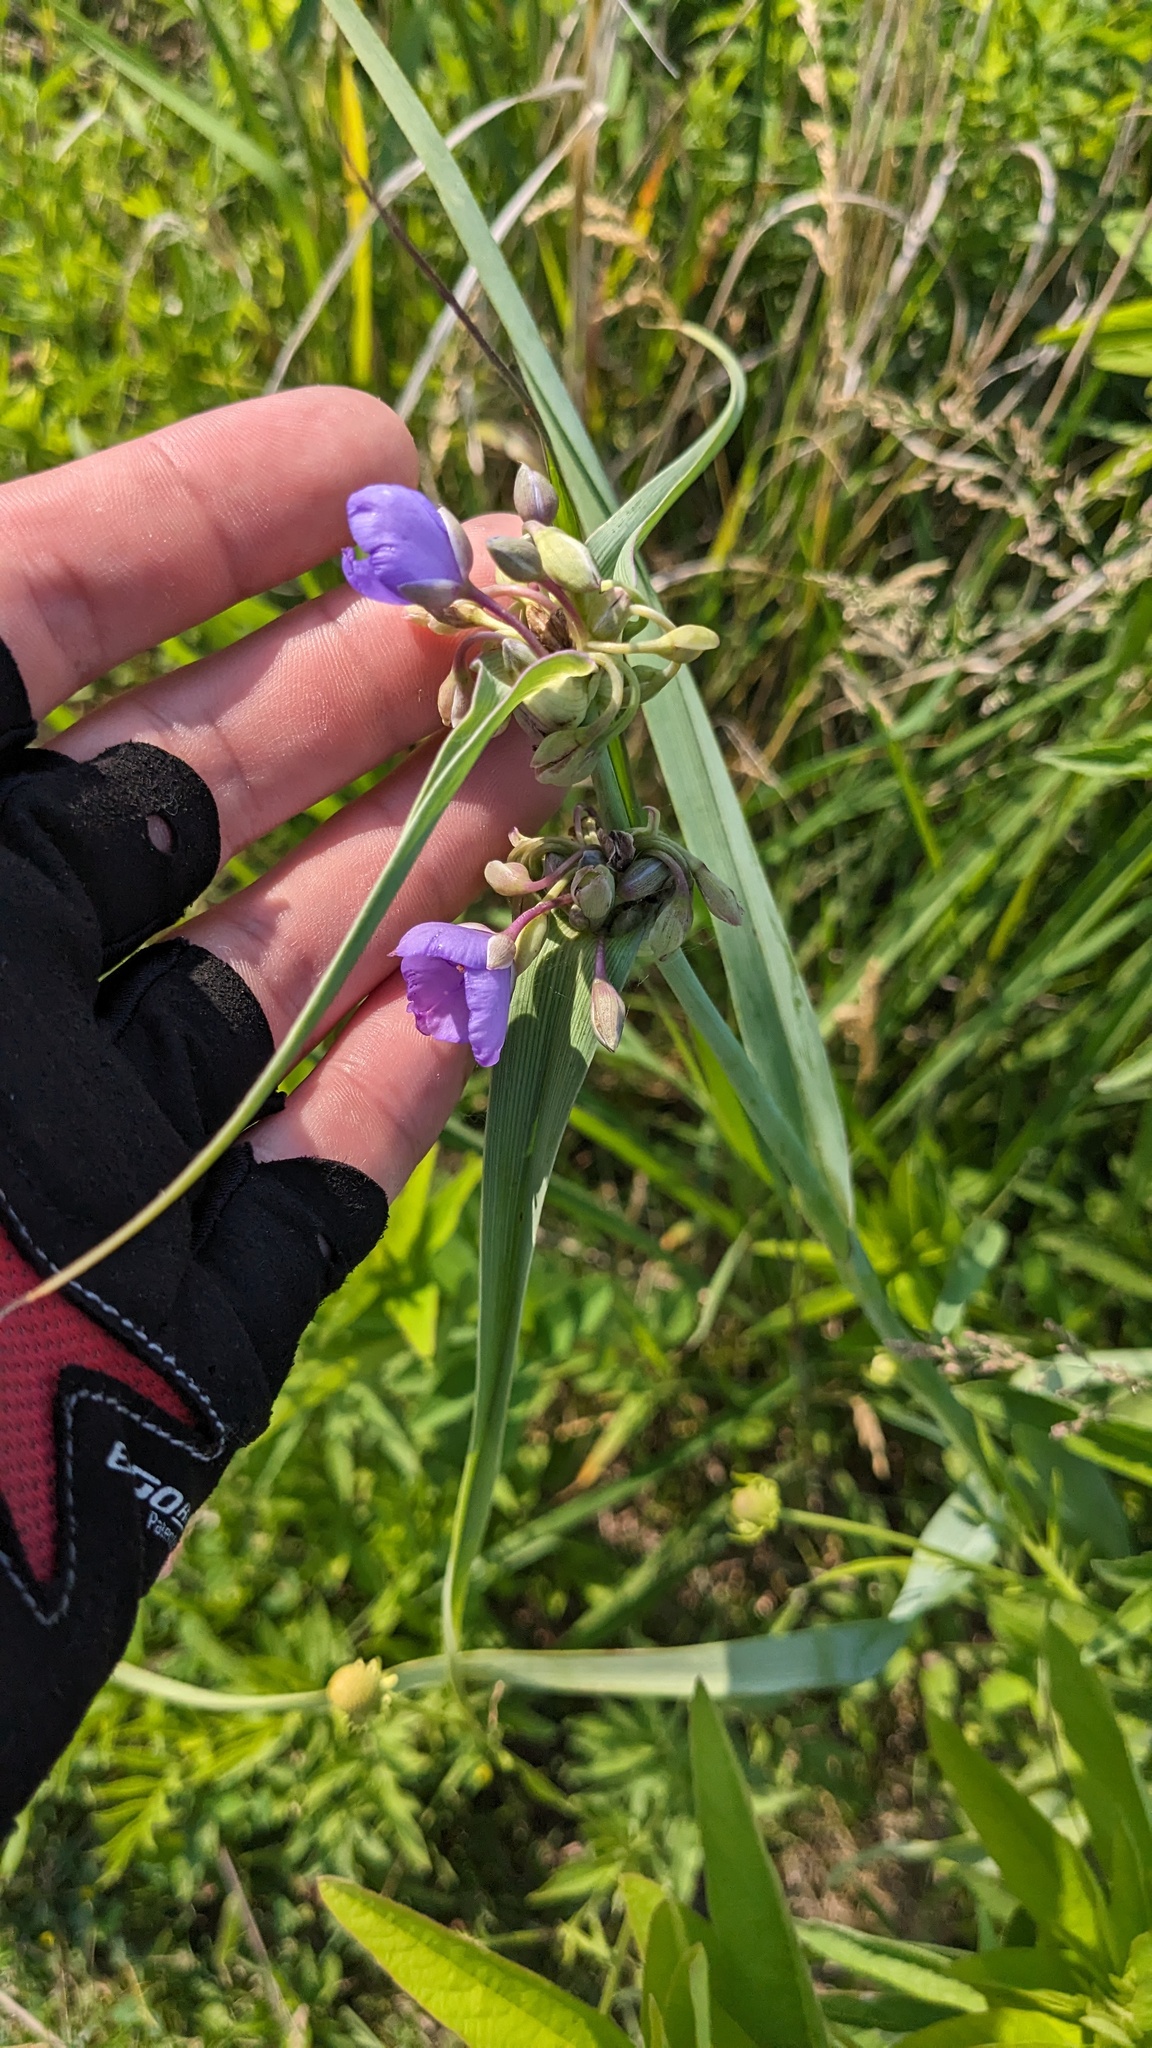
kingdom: Plantae
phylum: Tracheophyta
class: Liliopsida
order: Commelinales
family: Commelinaceae
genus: Tradescantia
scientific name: Tradescantia ohiensis
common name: Ohio spiderwort
